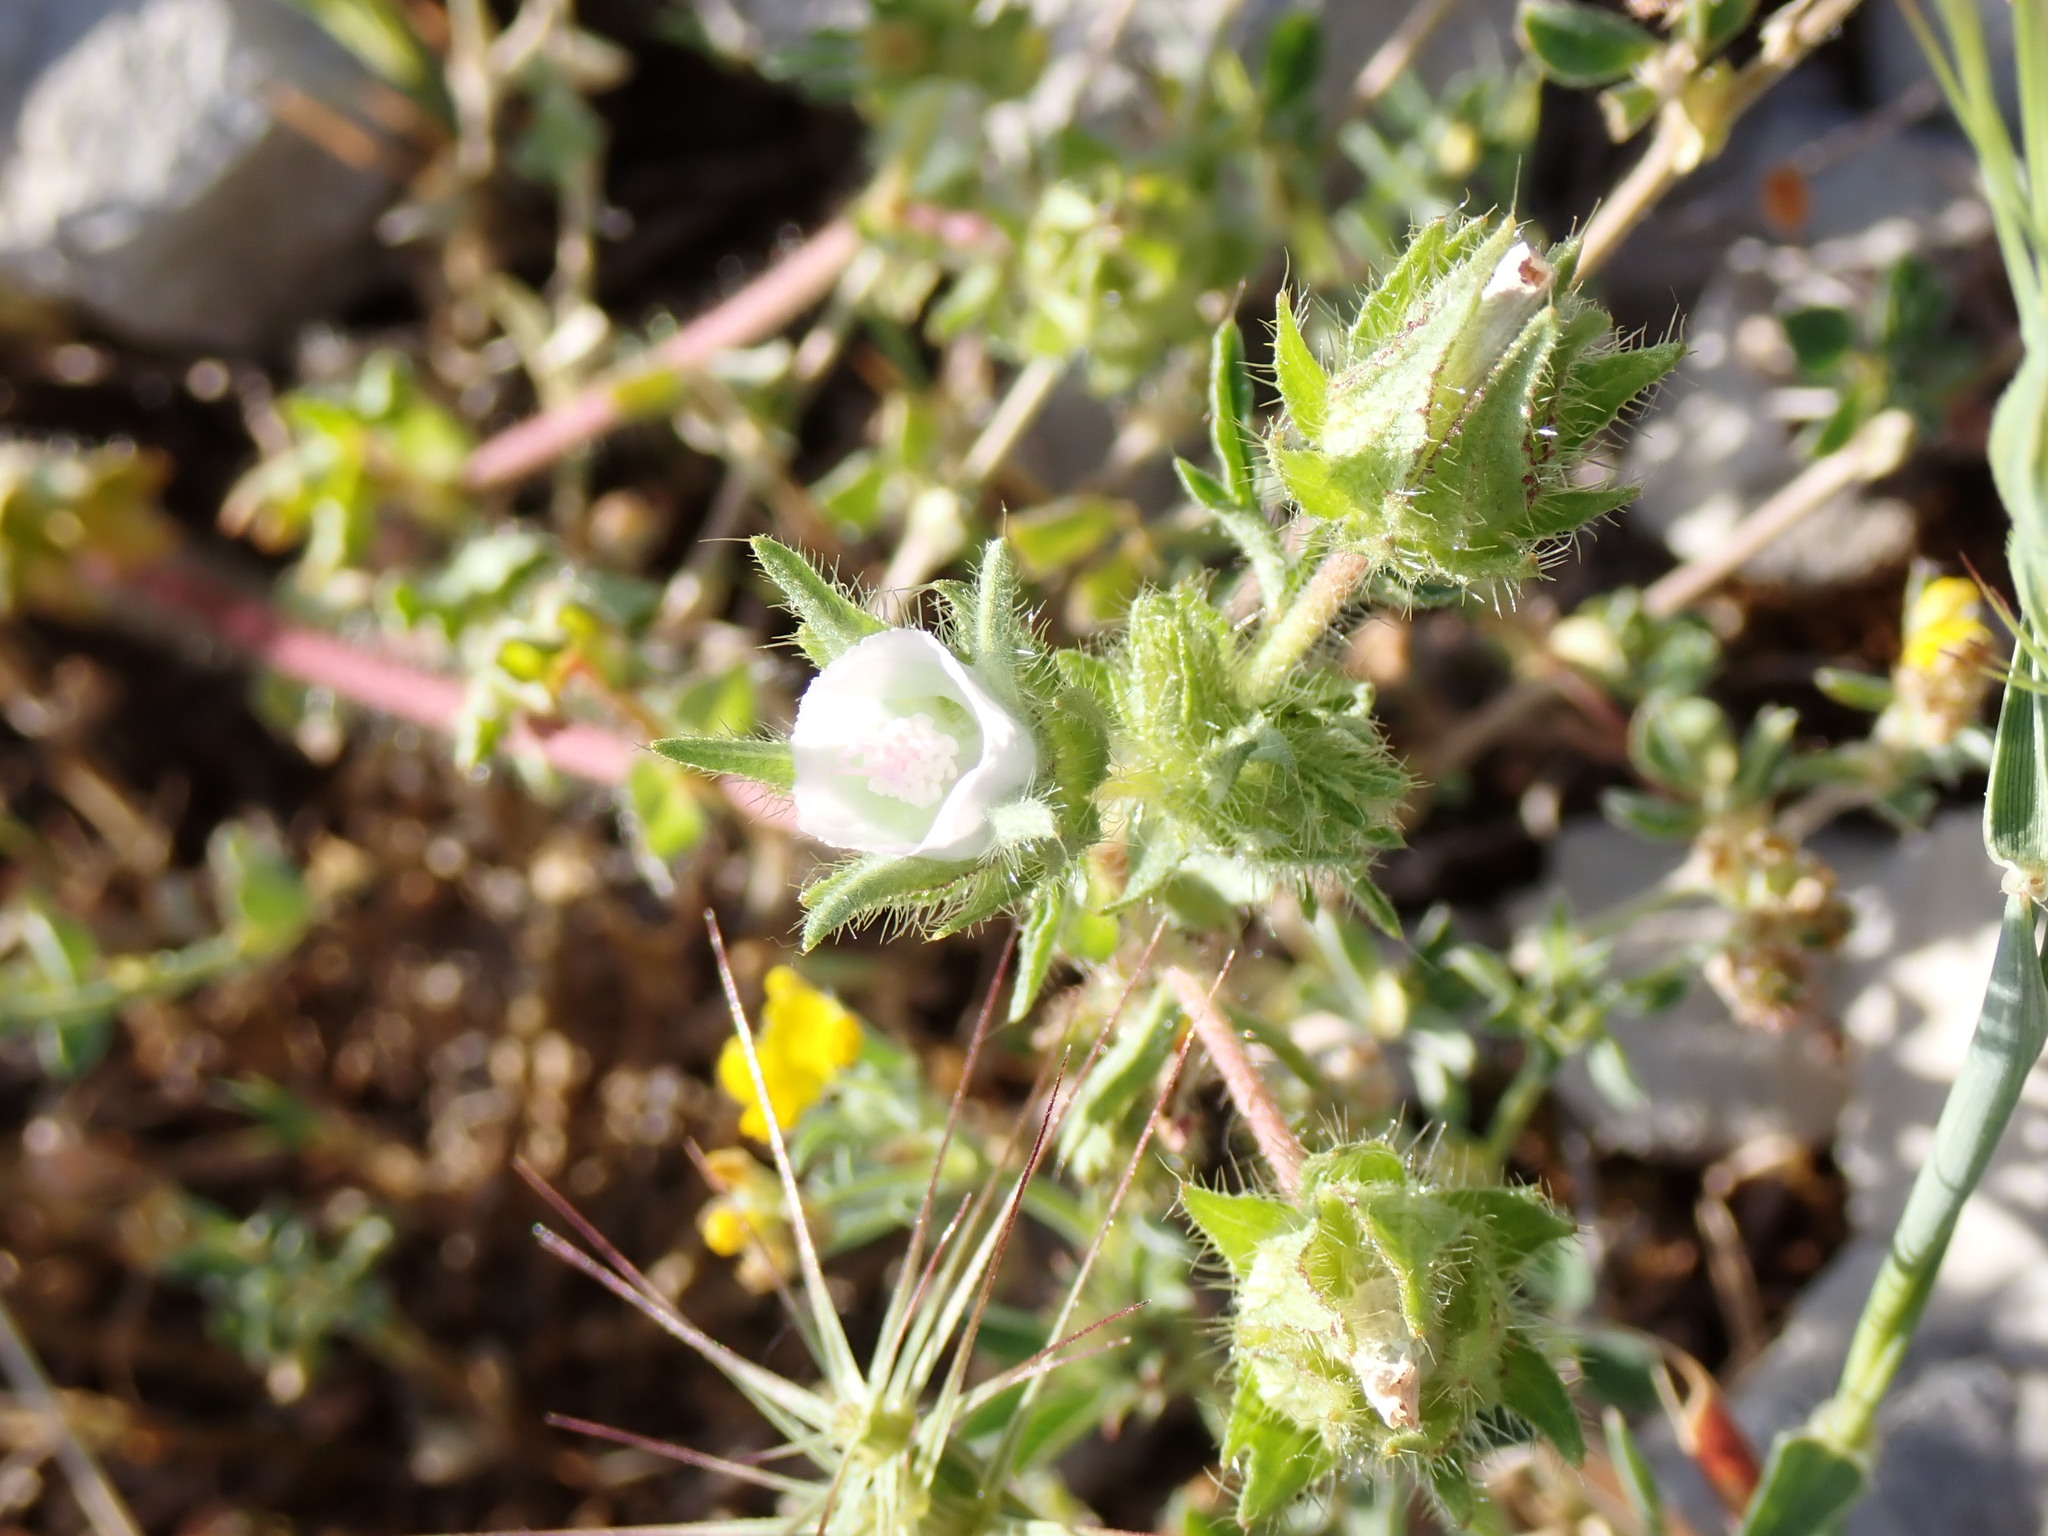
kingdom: Plantae
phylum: Tracheophyta
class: Magnoliopsida
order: Malvales
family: Malvaceae
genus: Althaea
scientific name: Althaea hirsuta
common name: Rough marsh-mallow
